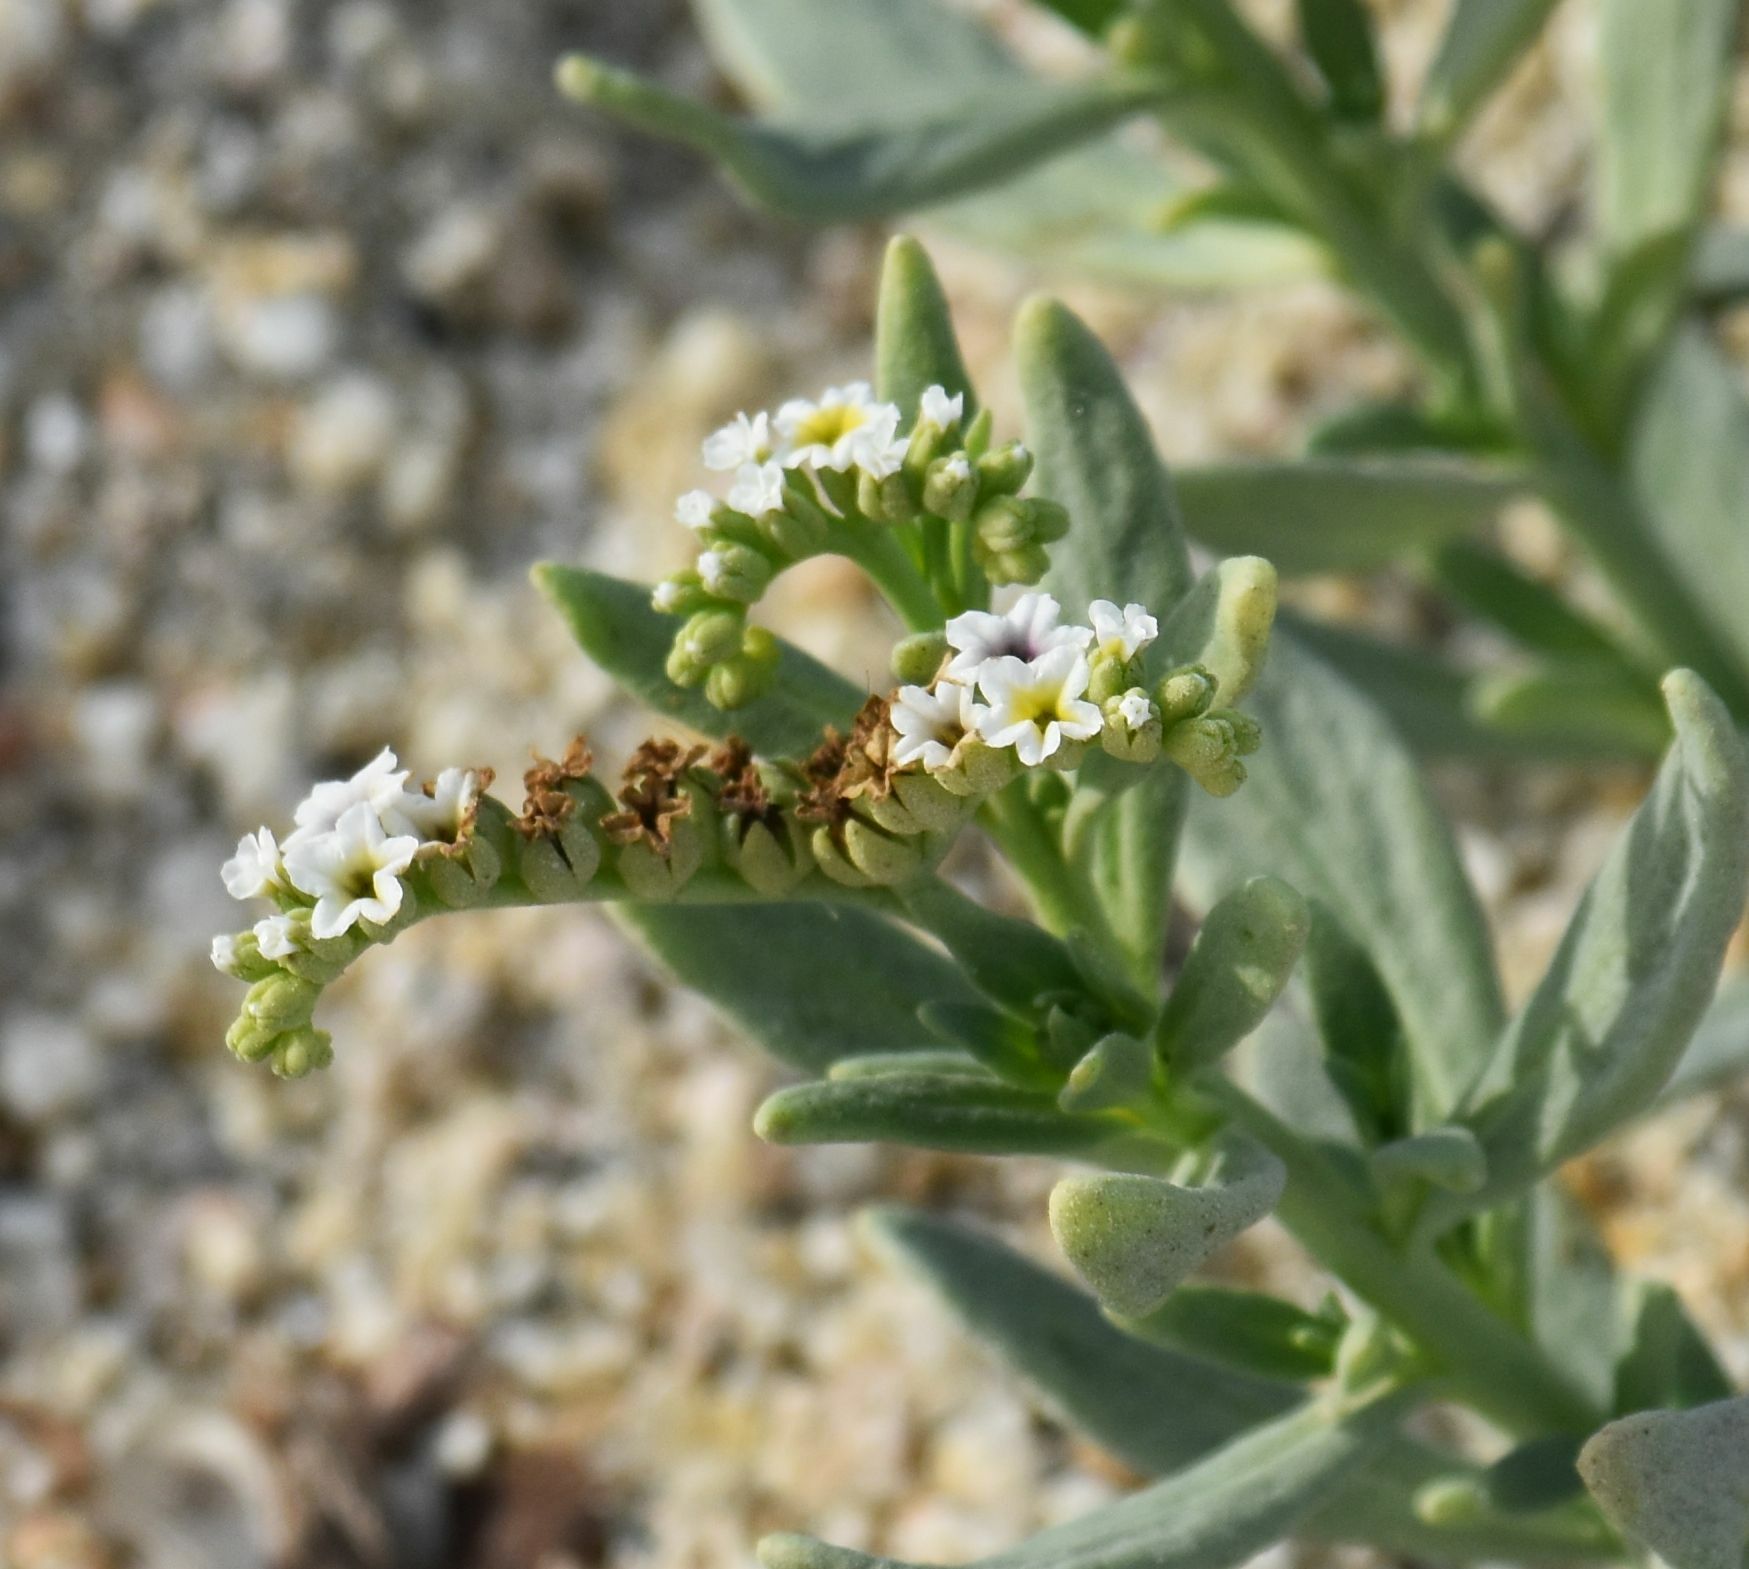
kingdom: Plantae
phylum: Tracheophyta
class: Magnoliopsida
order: Boraginales
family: Heliotropiaceae
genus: Heliotropium
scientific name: Heliotropium curassavicum
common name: Seaside heliotrope
